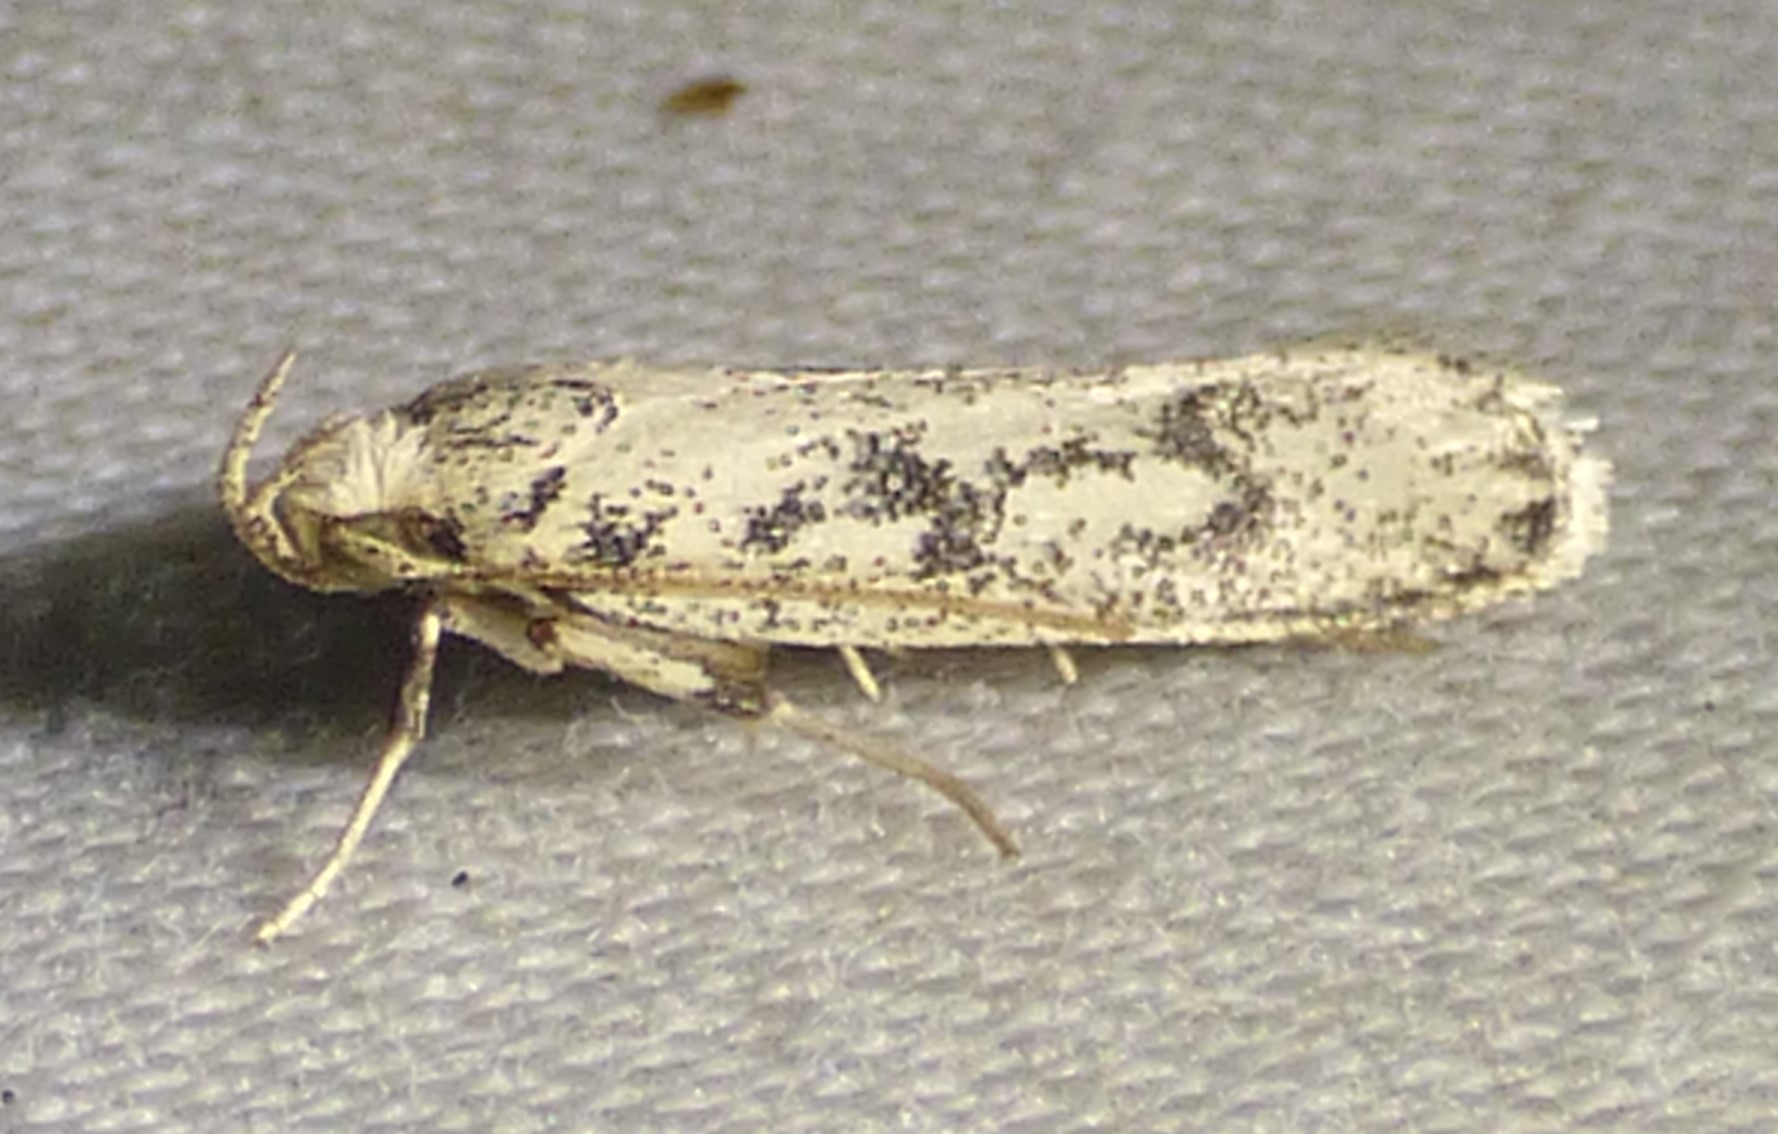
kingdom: Animalia
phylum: Arthropoda
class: Insecta
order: Lepidoptera
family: Autostichidae
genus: Glyphidocera
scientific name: Glyphidocera lactiflosella
